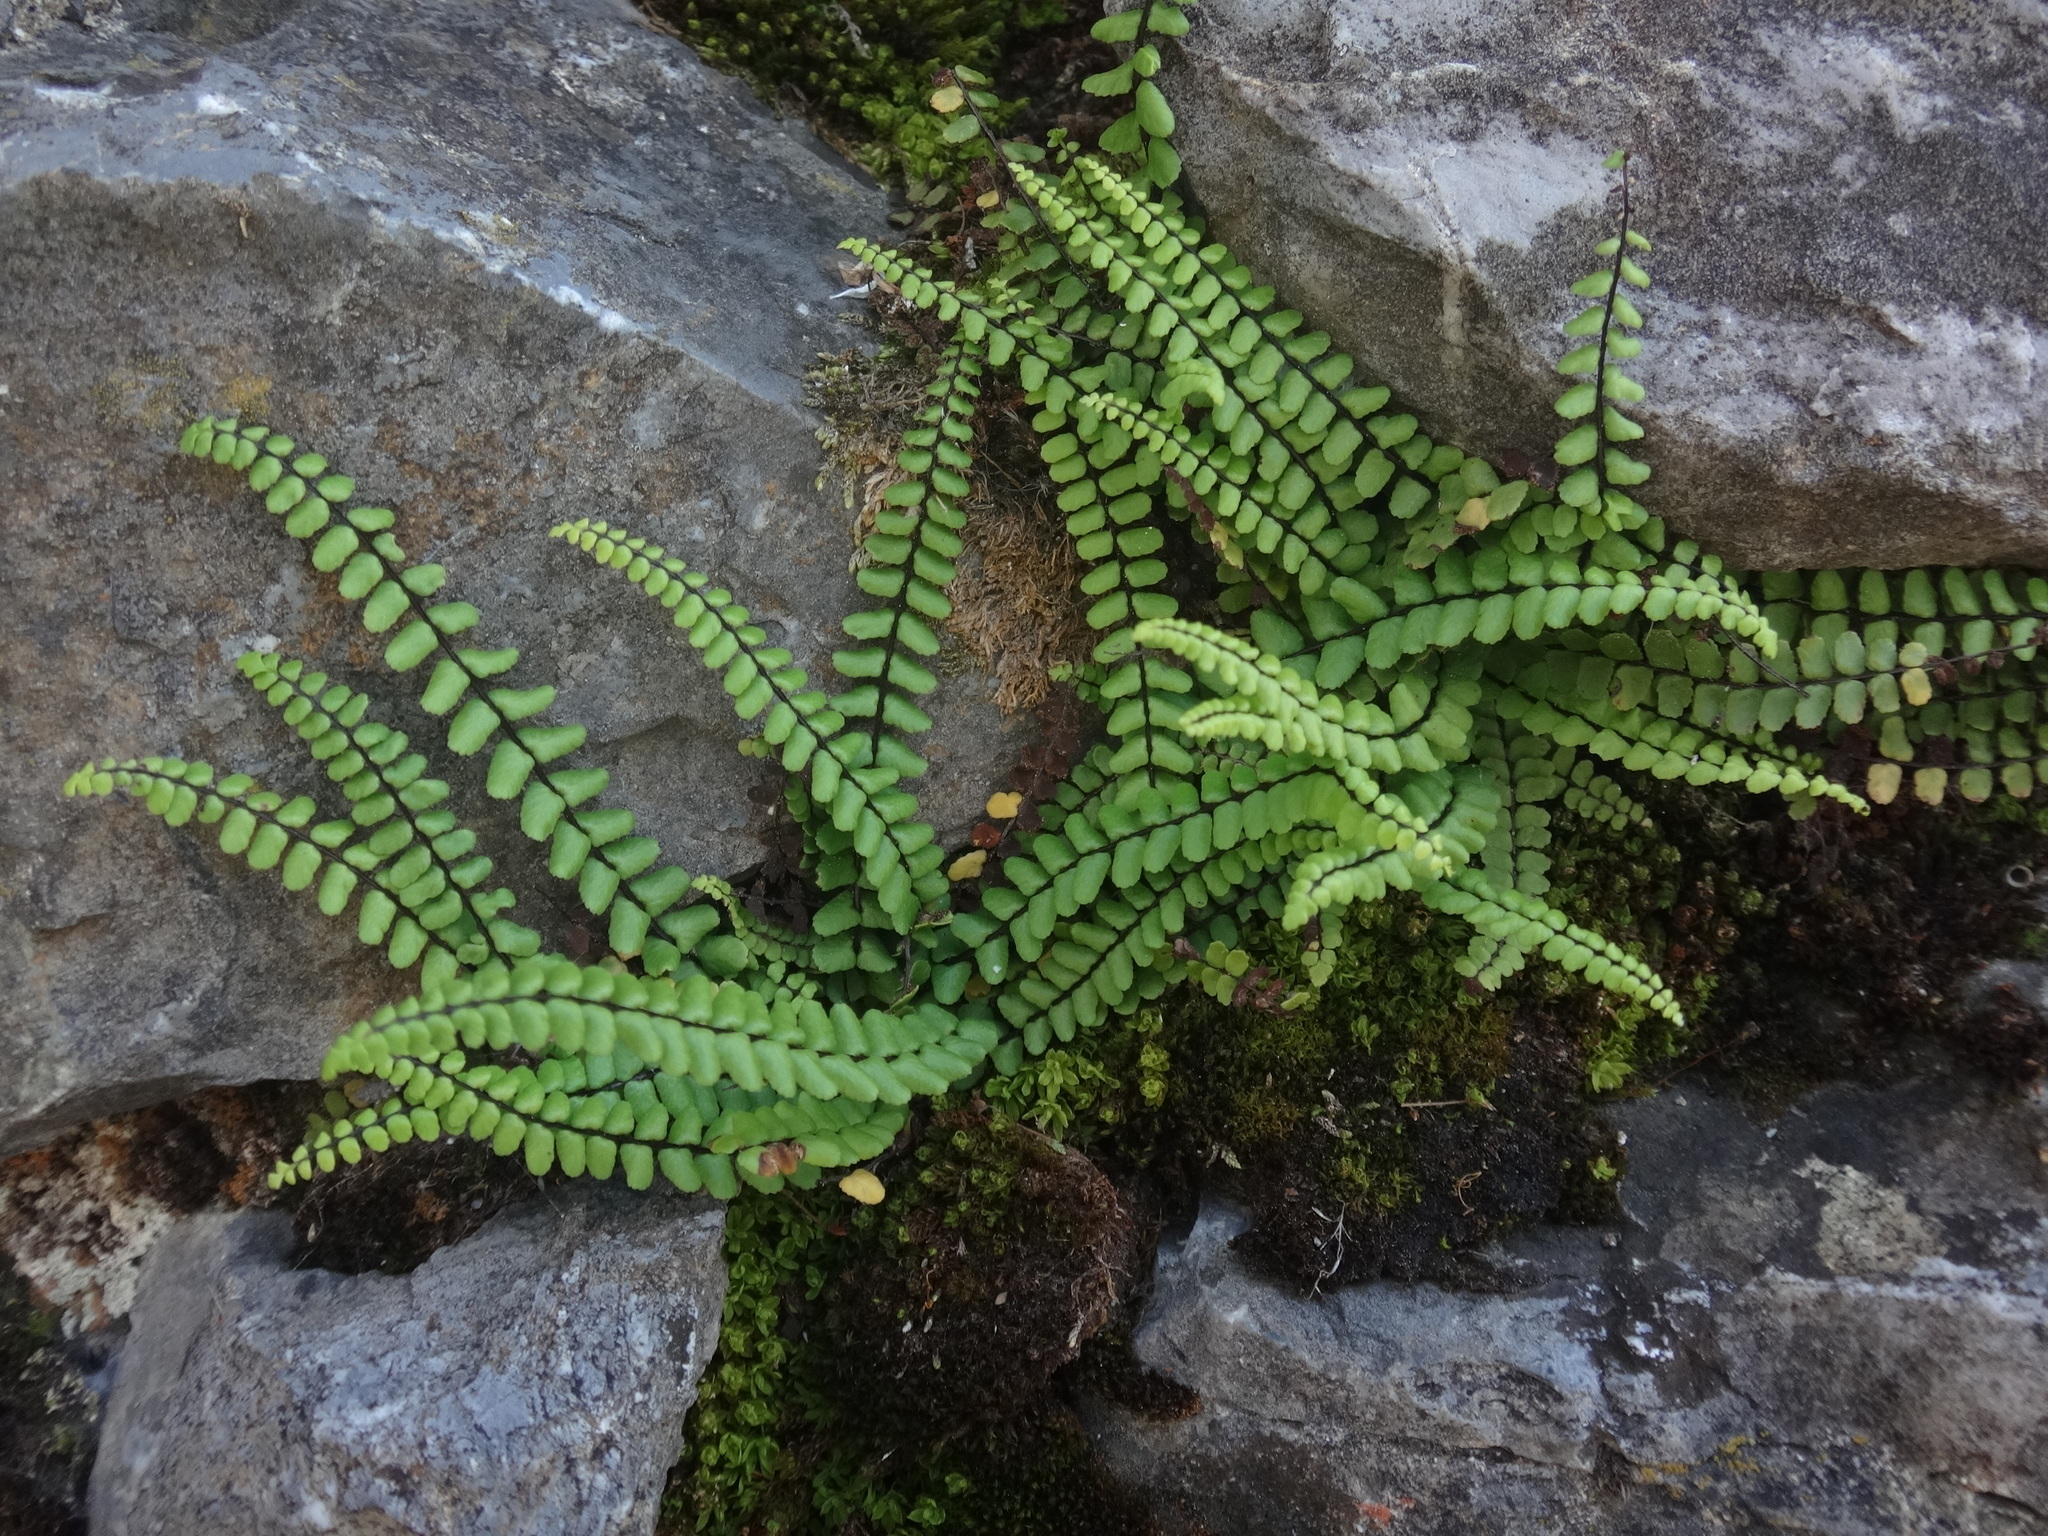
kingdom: Plantae
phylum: Tracheophyta
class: Polypodiopsida
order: Polypodiales
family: Aspleniaceae
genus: Asplenium
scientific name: Asplenium trichomanes
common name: Maidenhair spleenwort
